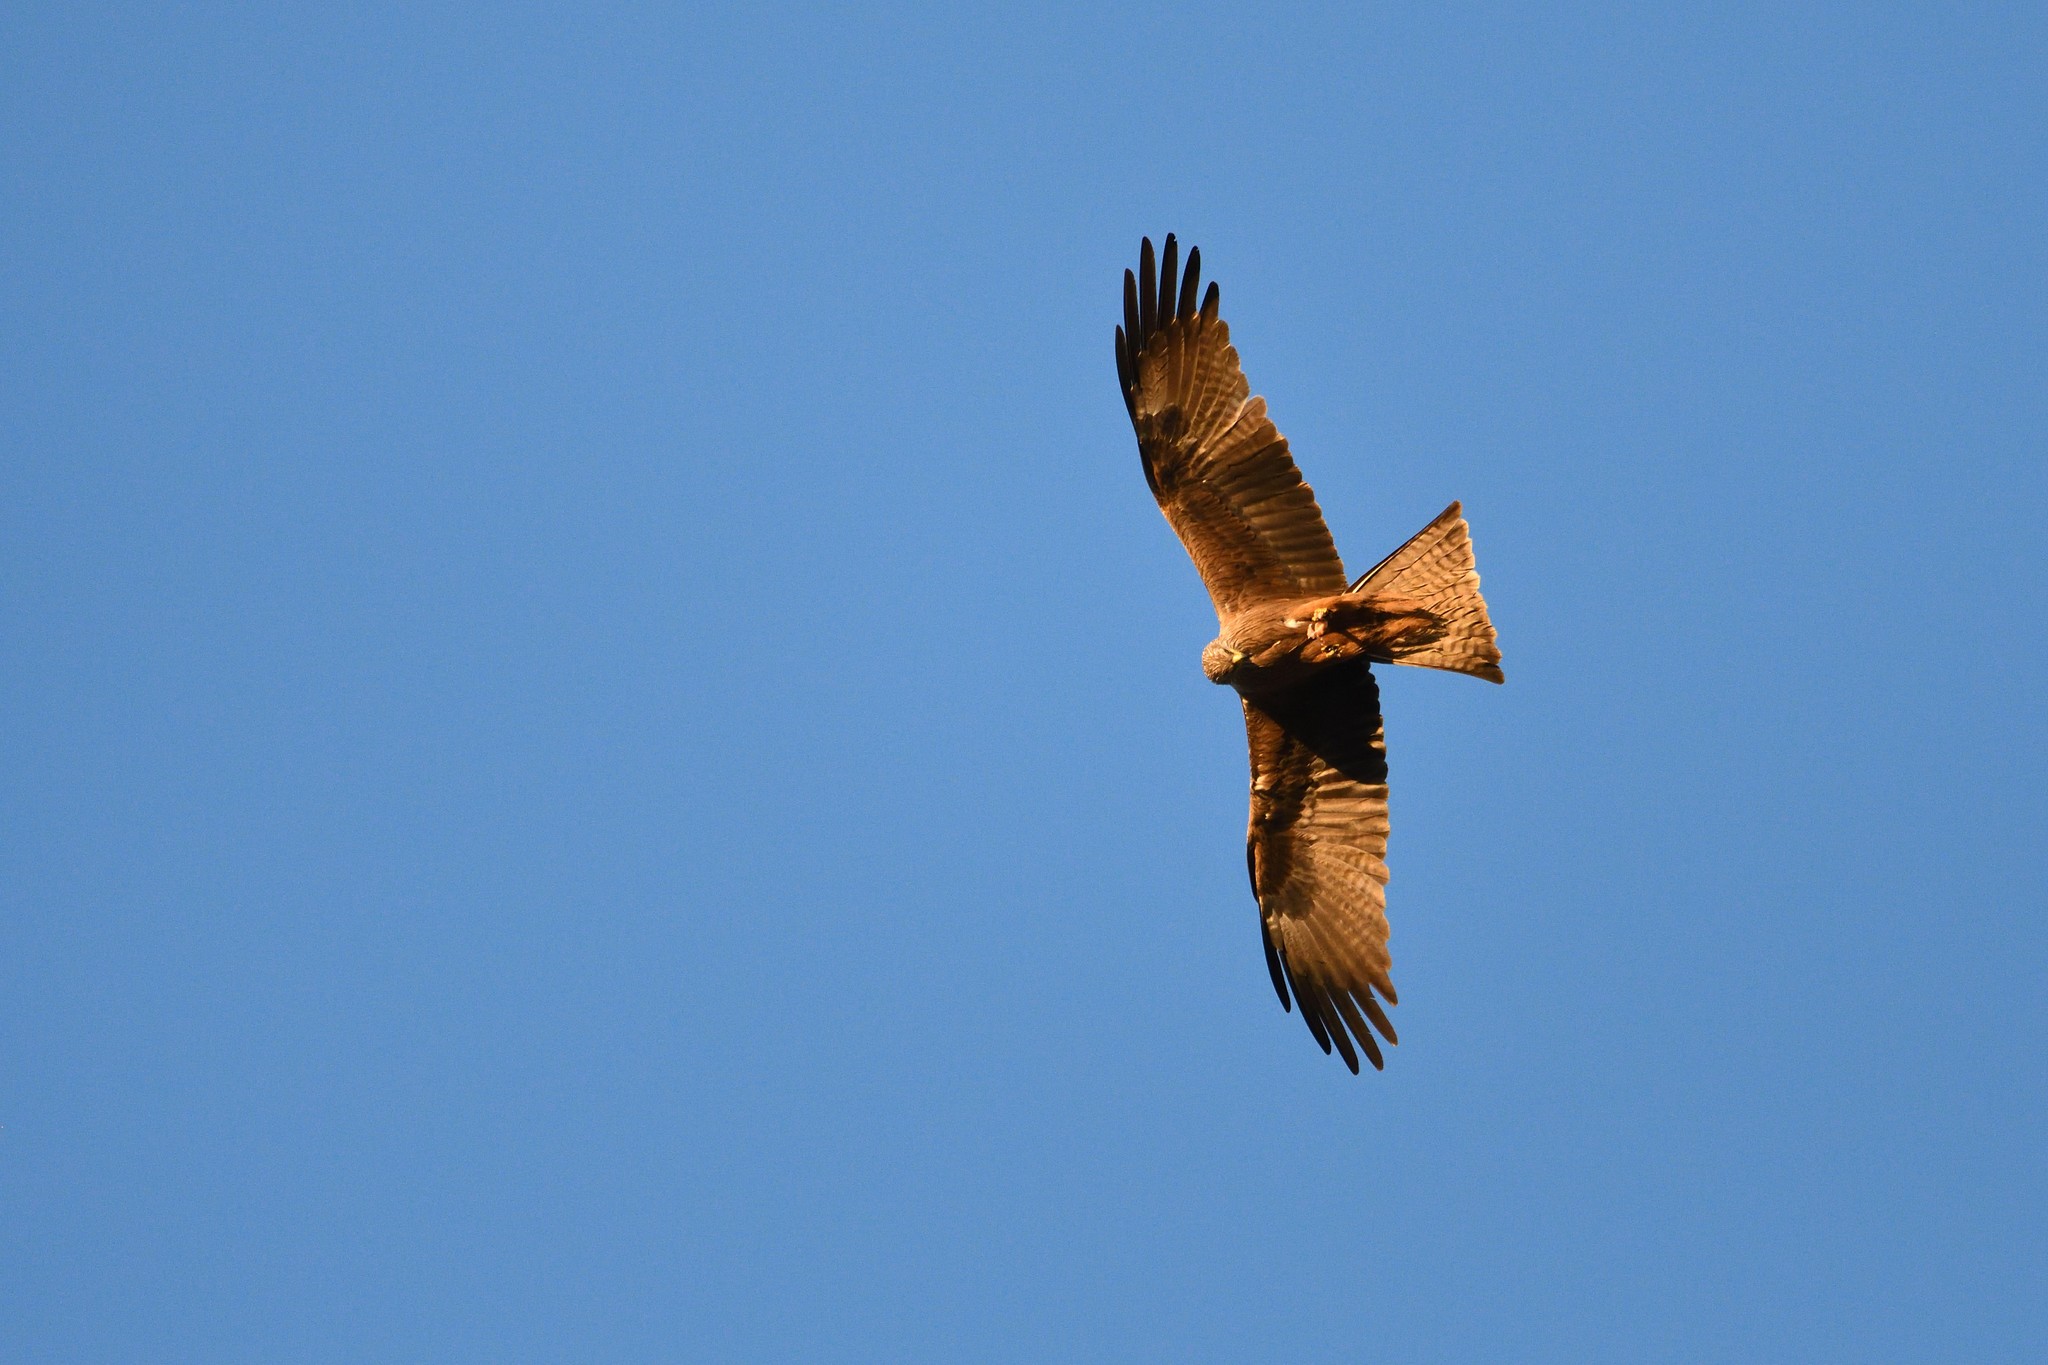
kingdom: Animalia
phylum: Chordata
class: Aves
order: Accipitriformes
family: Accipitridae
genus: Milvus
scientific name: Milvus migrans
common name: Black kite
